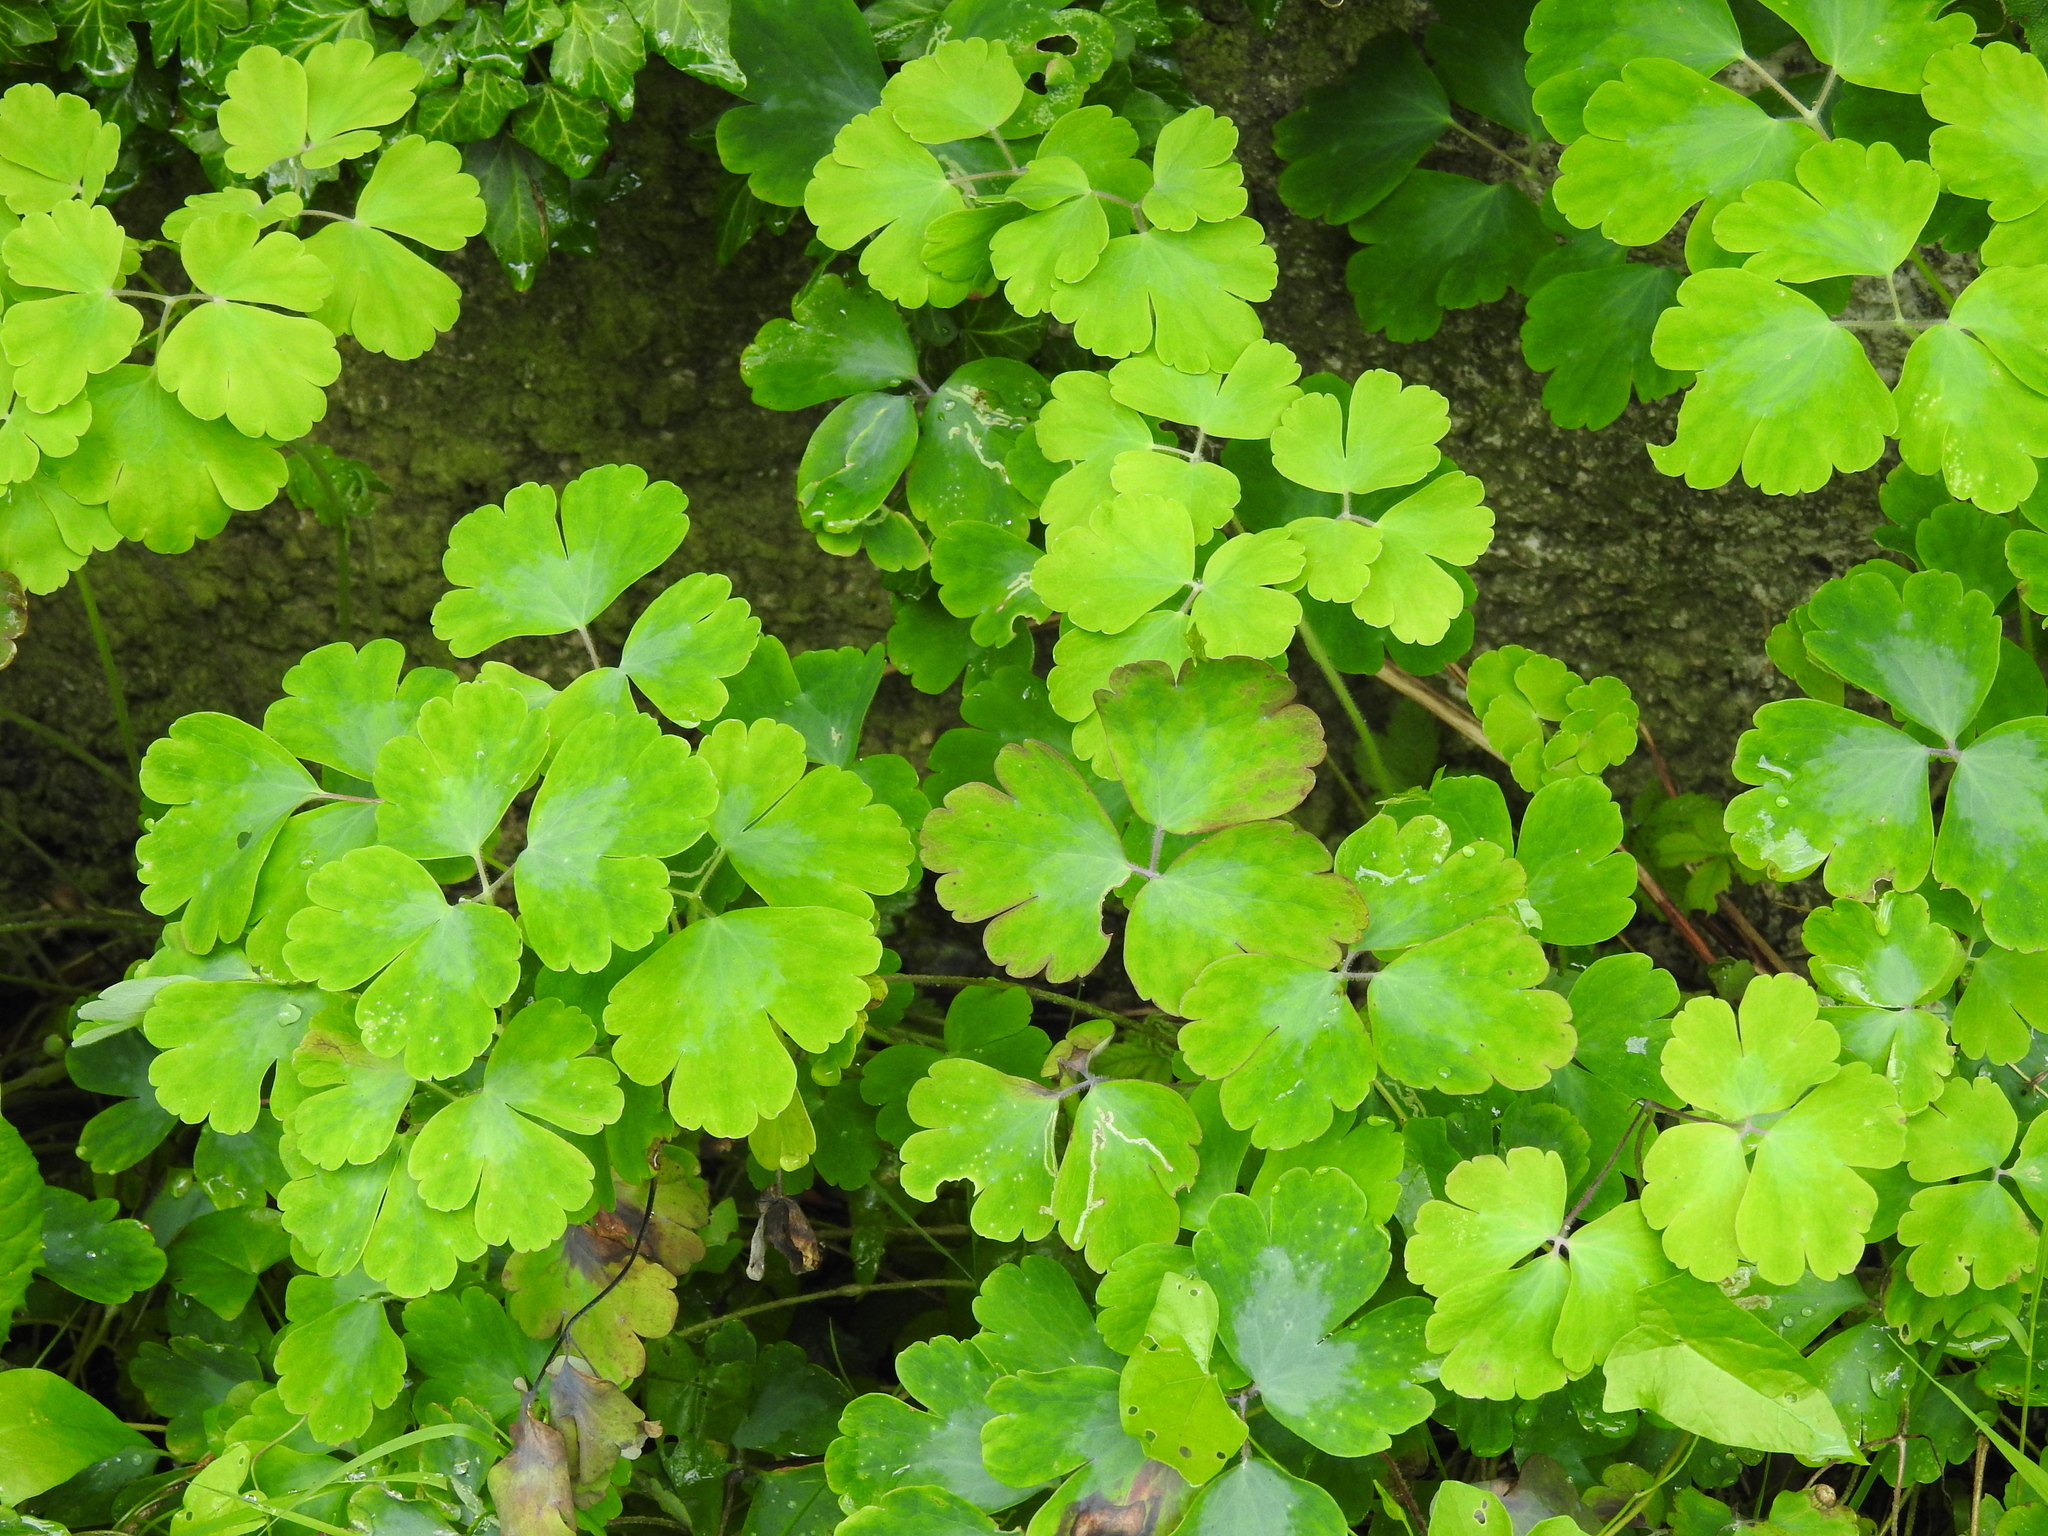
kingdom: Plantae
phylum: Tracheophyta
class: Magnoliopsida
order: Ranunculales
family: Ranunculaceae
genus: Aquilegia
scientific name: Aquilegia vulgaris
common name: Columbine
